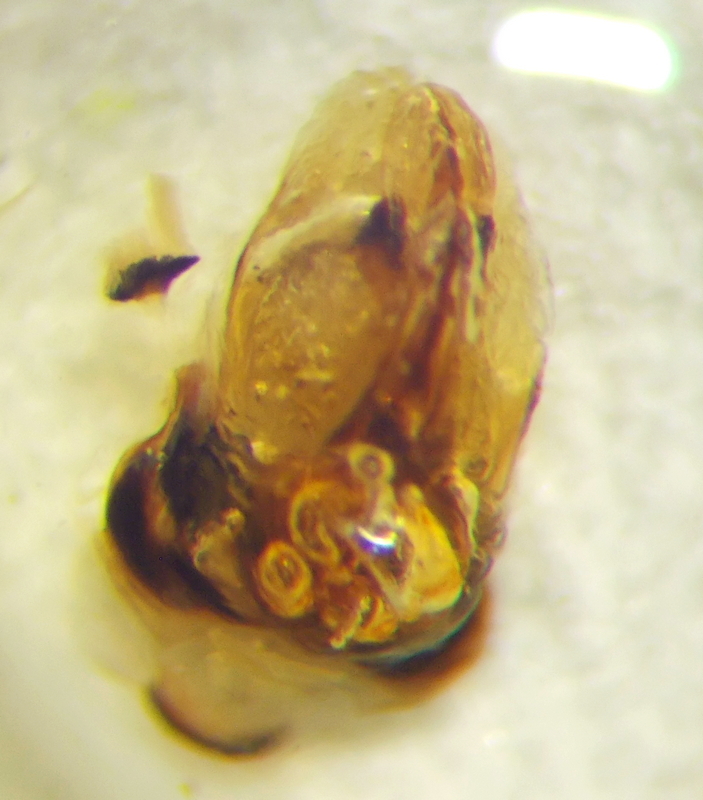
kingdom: Animalia
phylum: Arthropoda
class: Insecta
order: Hemiptera
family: Scutelleridae
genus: Odontotarsus
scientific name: Odontotarsus robustus
